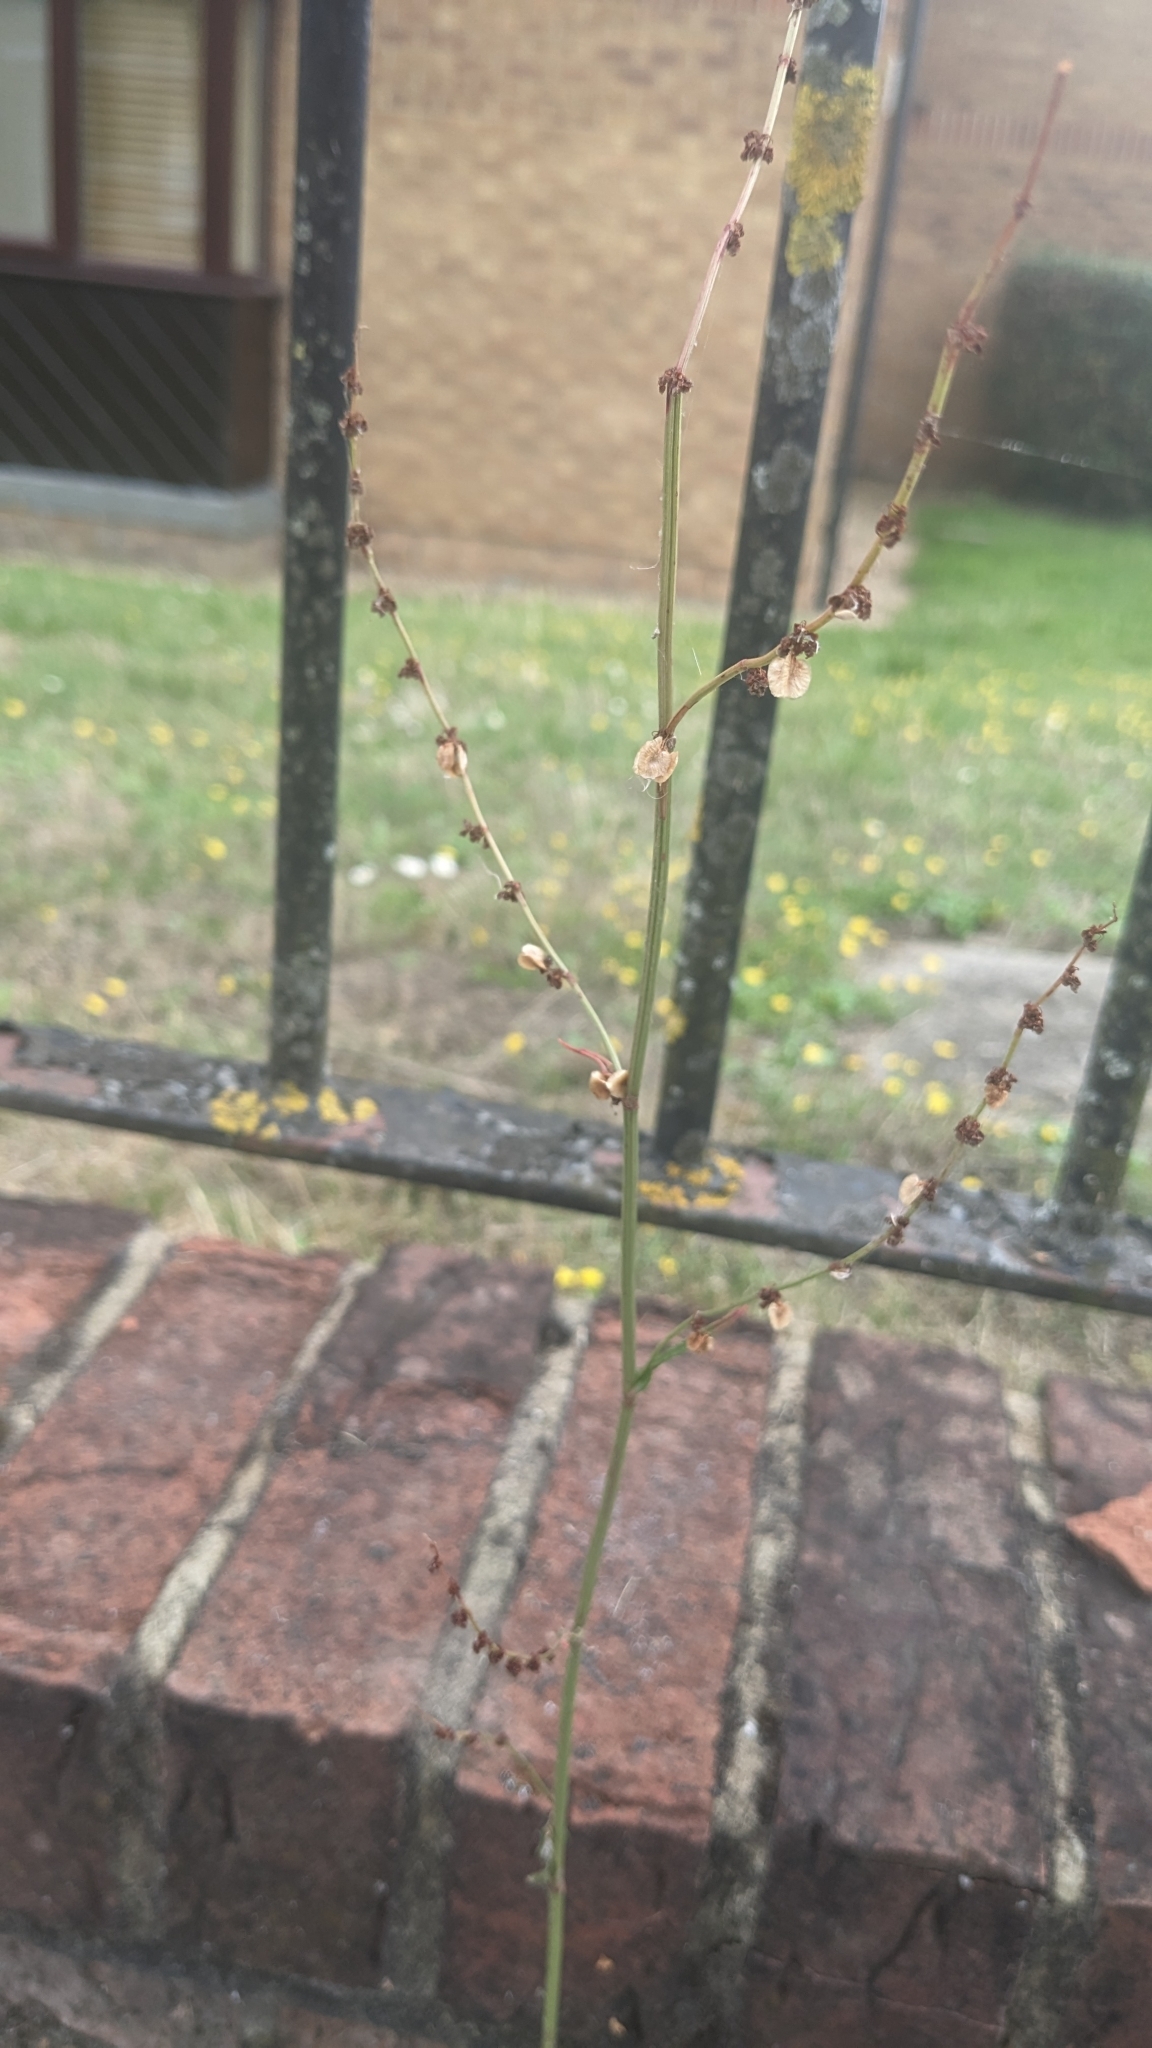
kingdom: Plantae
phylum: Tracheophyta
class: Magnoliopsida
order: Caryophyllales
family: Polygonaceae
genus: Rumex
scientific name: Rumex acetosa
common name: Garden sorrel
